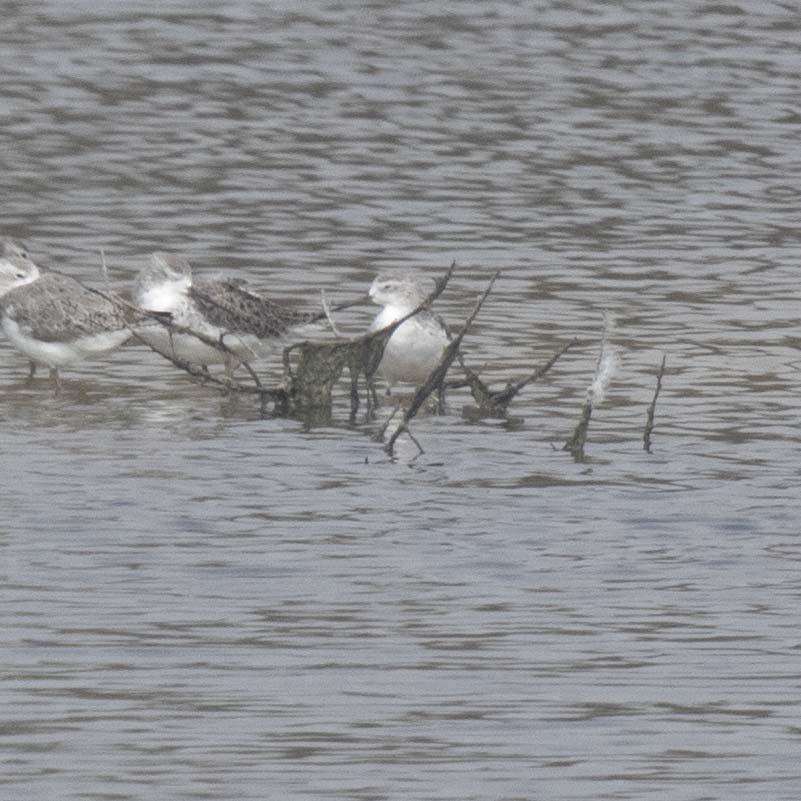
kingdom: Animalia
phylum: Chordata
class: Aves
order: Charadriiformes
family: Scolopacidae
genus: Tringa
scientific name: Tringa stagnatilis
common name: Marsh sandpiper
